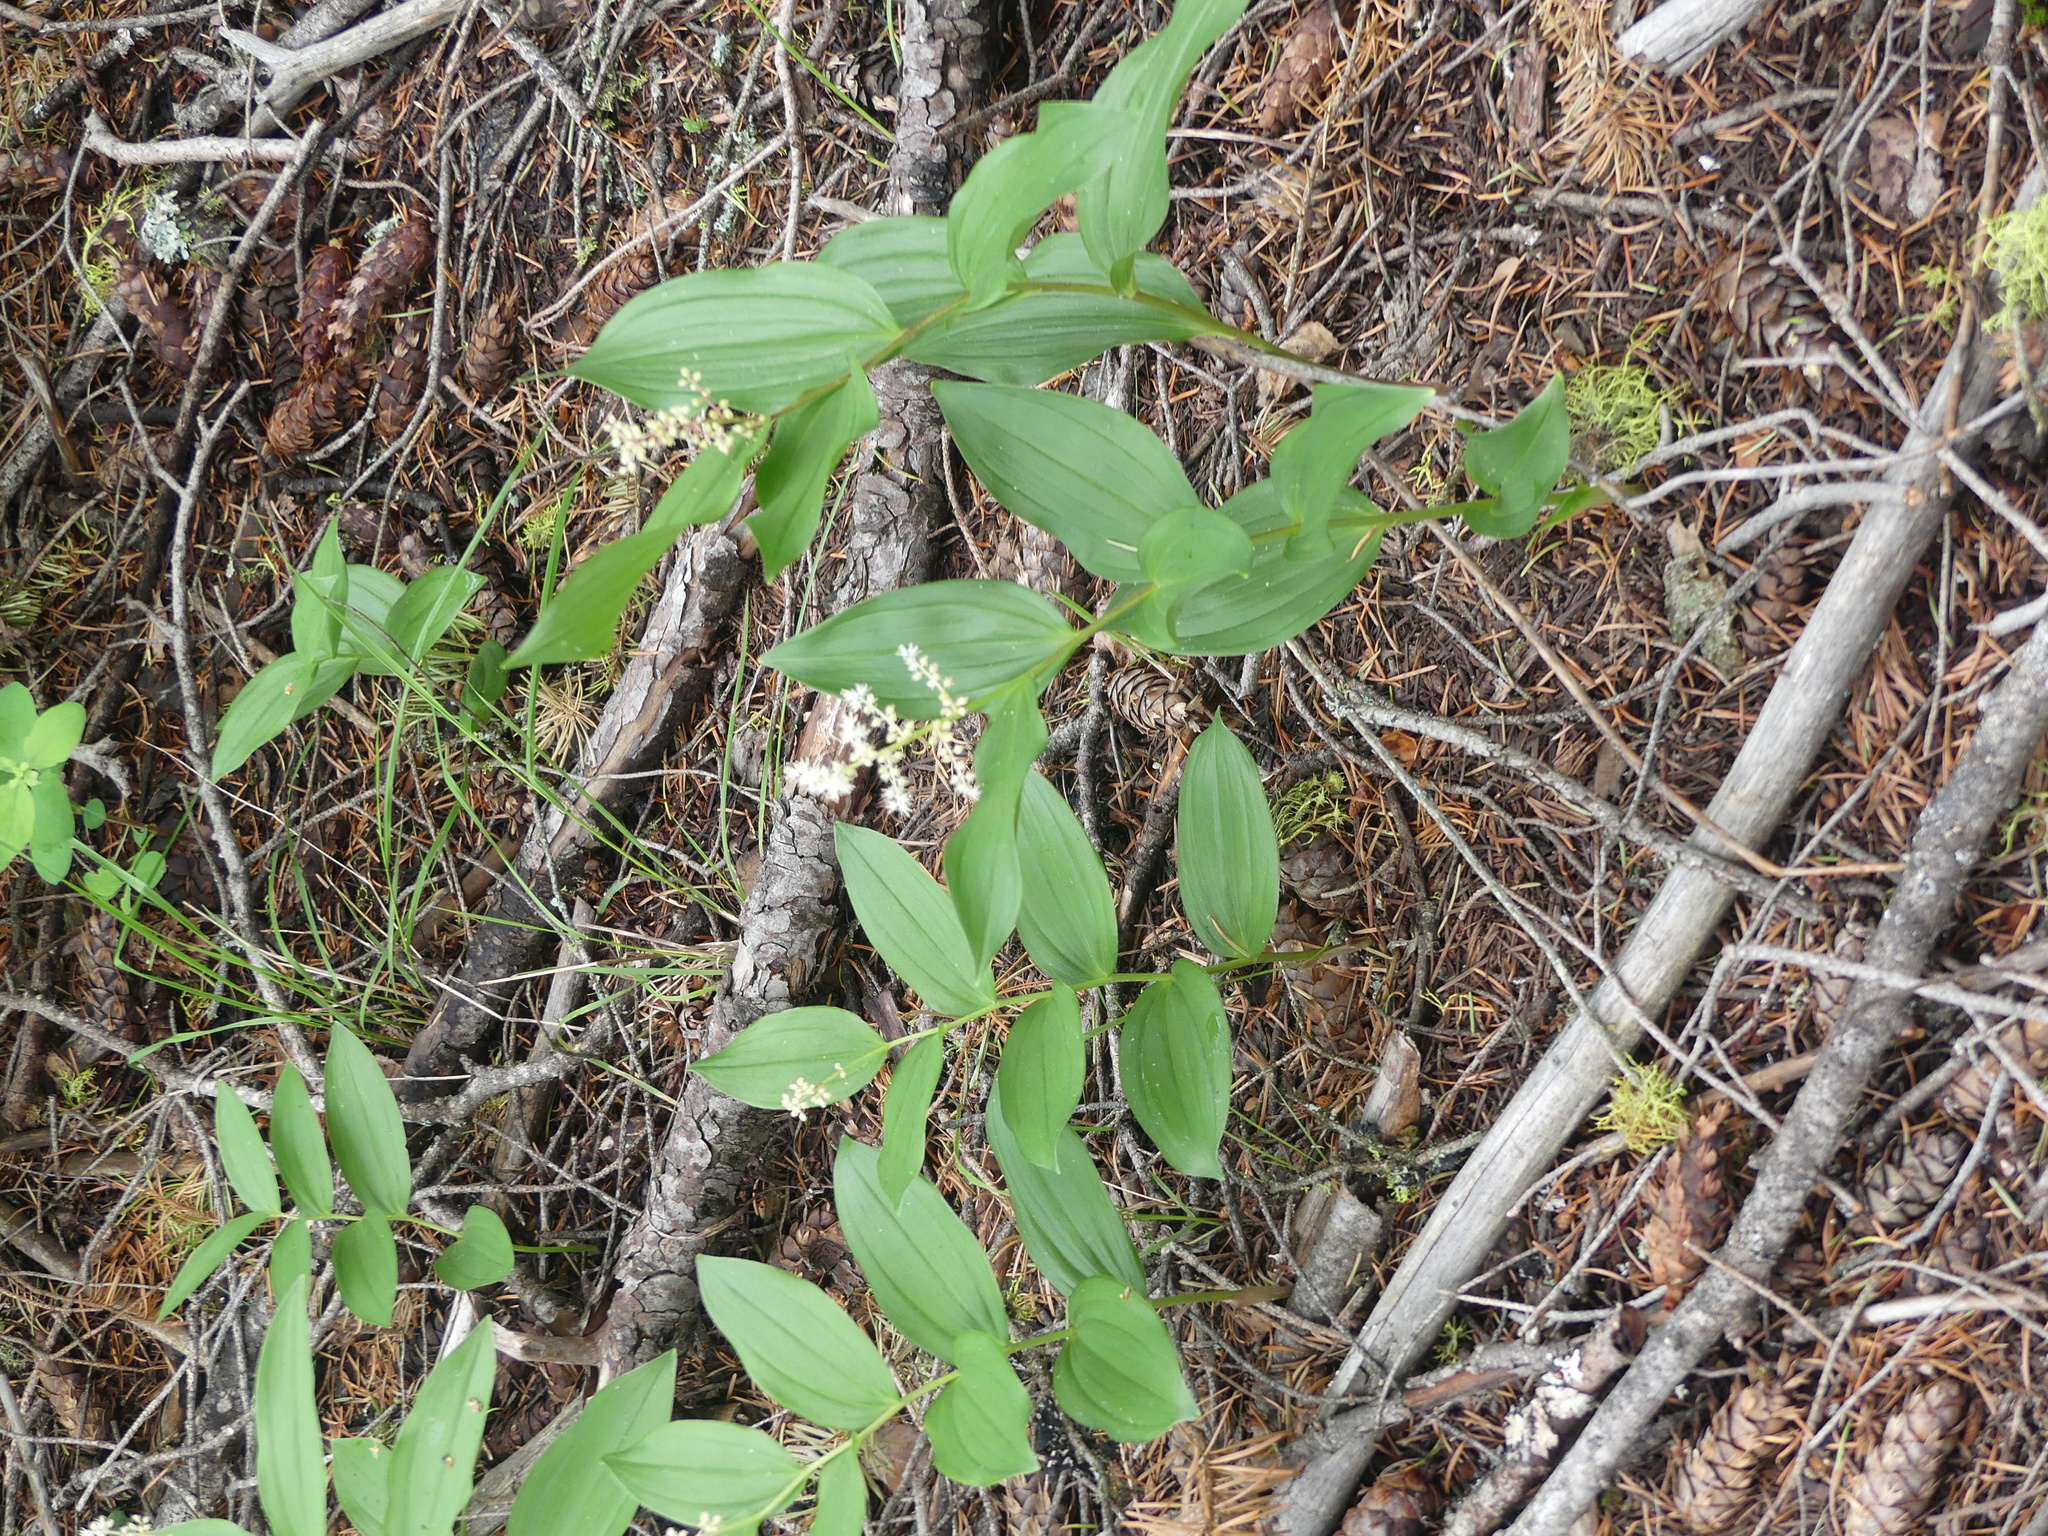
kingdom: Plantae
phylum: Tracheophyta
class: Liliopsida
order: Asparagales
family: Asparagaceae
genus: Maianthemum
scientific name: Maianthemum racemosum
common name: False spikenard
